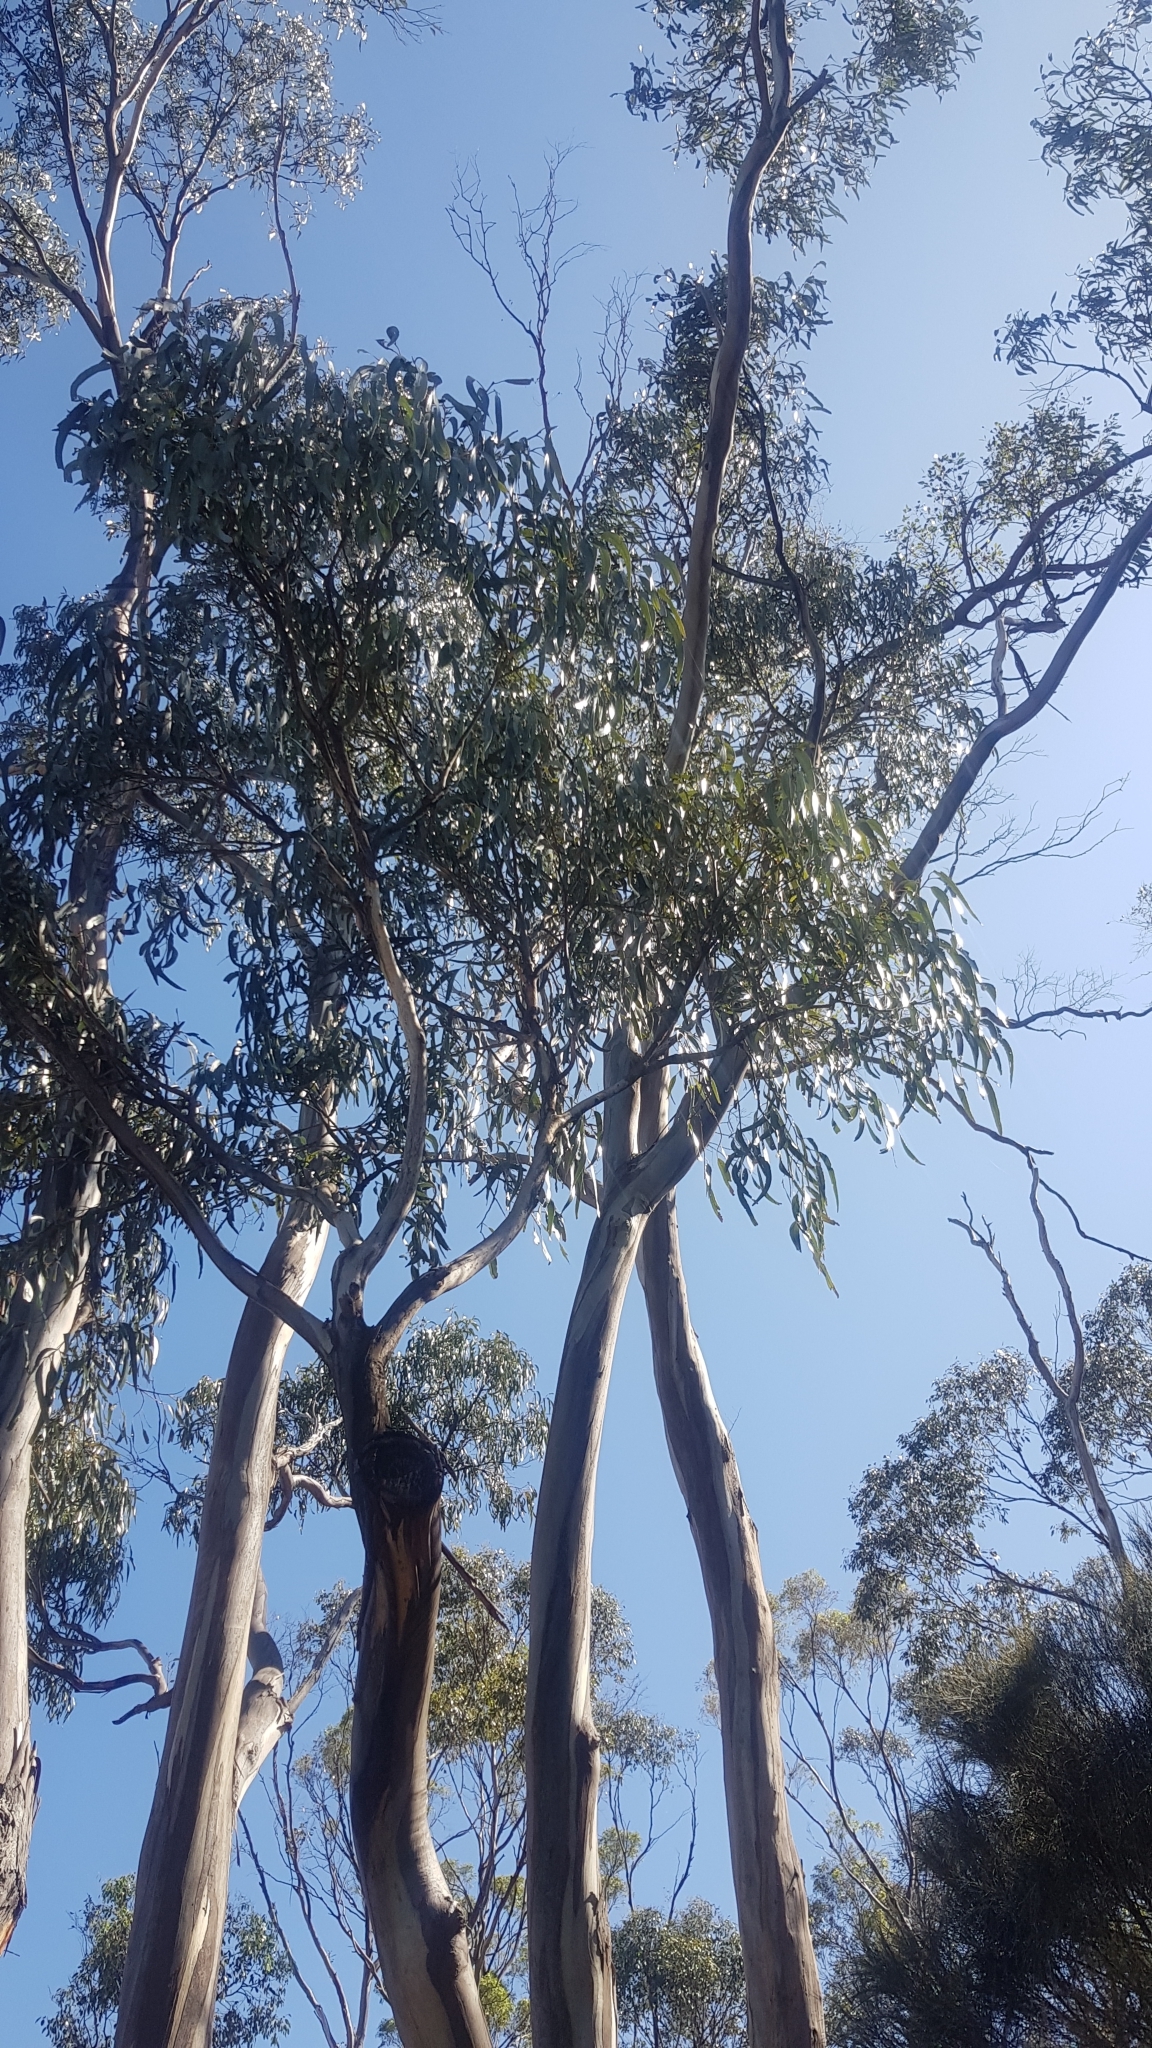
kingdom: Plantae
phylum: Tracheophyta
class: Magnoliopsida
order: Myrtales
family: Myrtaceae
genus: Eucalyptus
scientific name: Eucalyptus globulus
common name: Southern blue-gum
